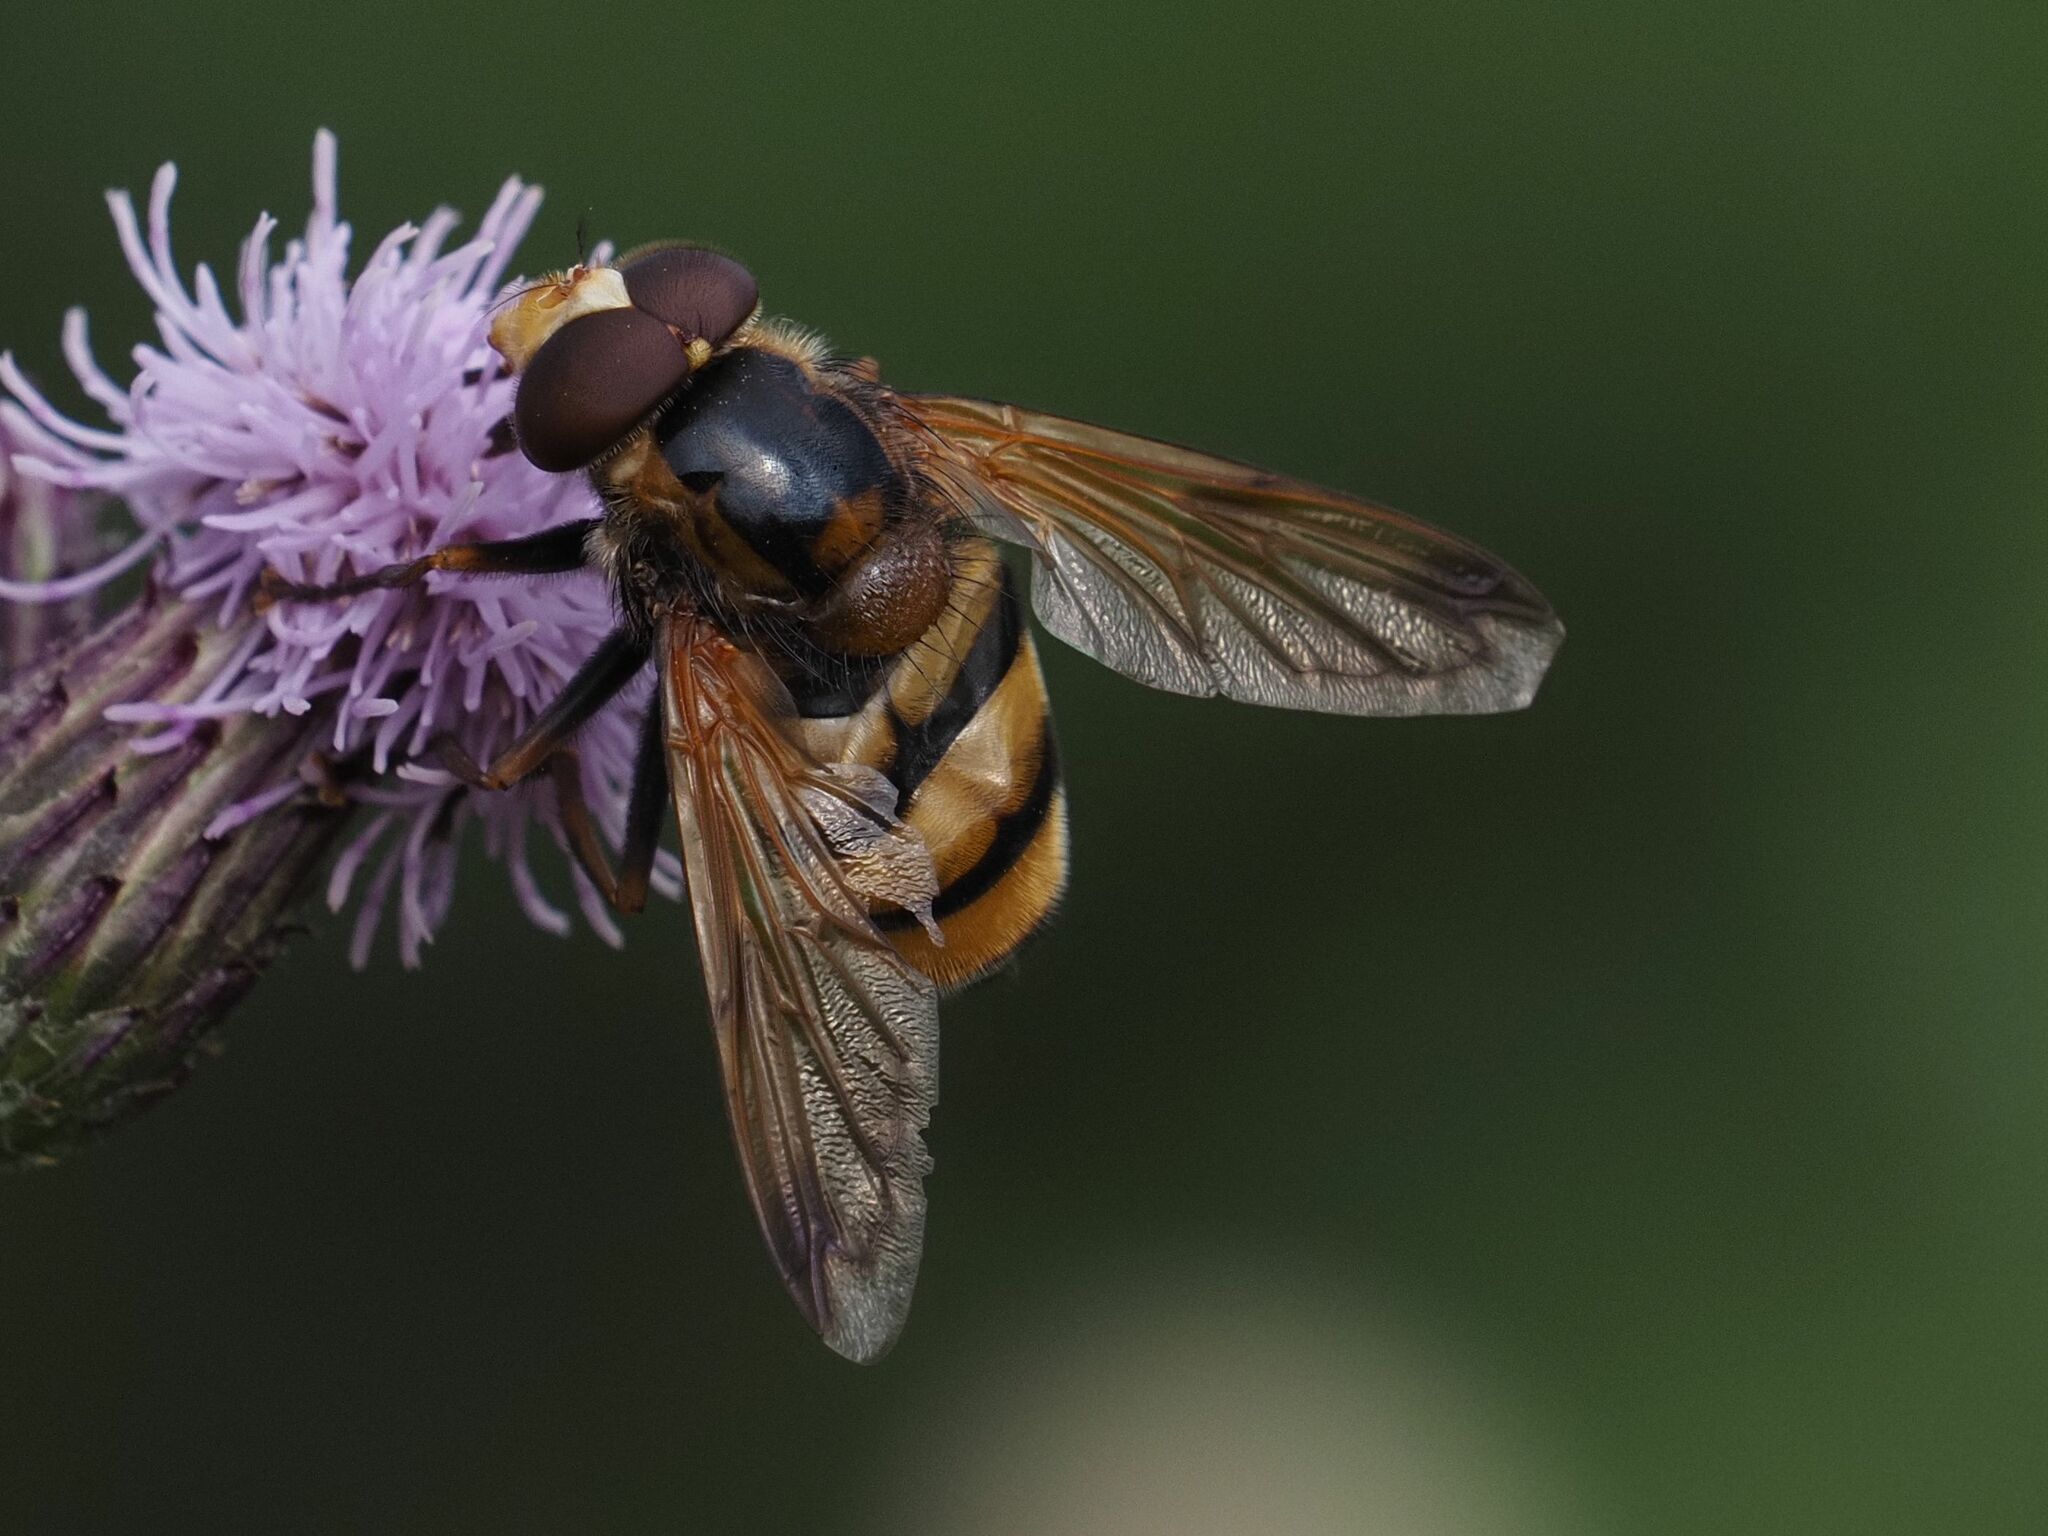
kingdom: Animalia
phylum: Arthropoda
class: Insecta
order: Diptera
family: Syrphidae
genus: Volucella
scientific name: Volucella inanis
